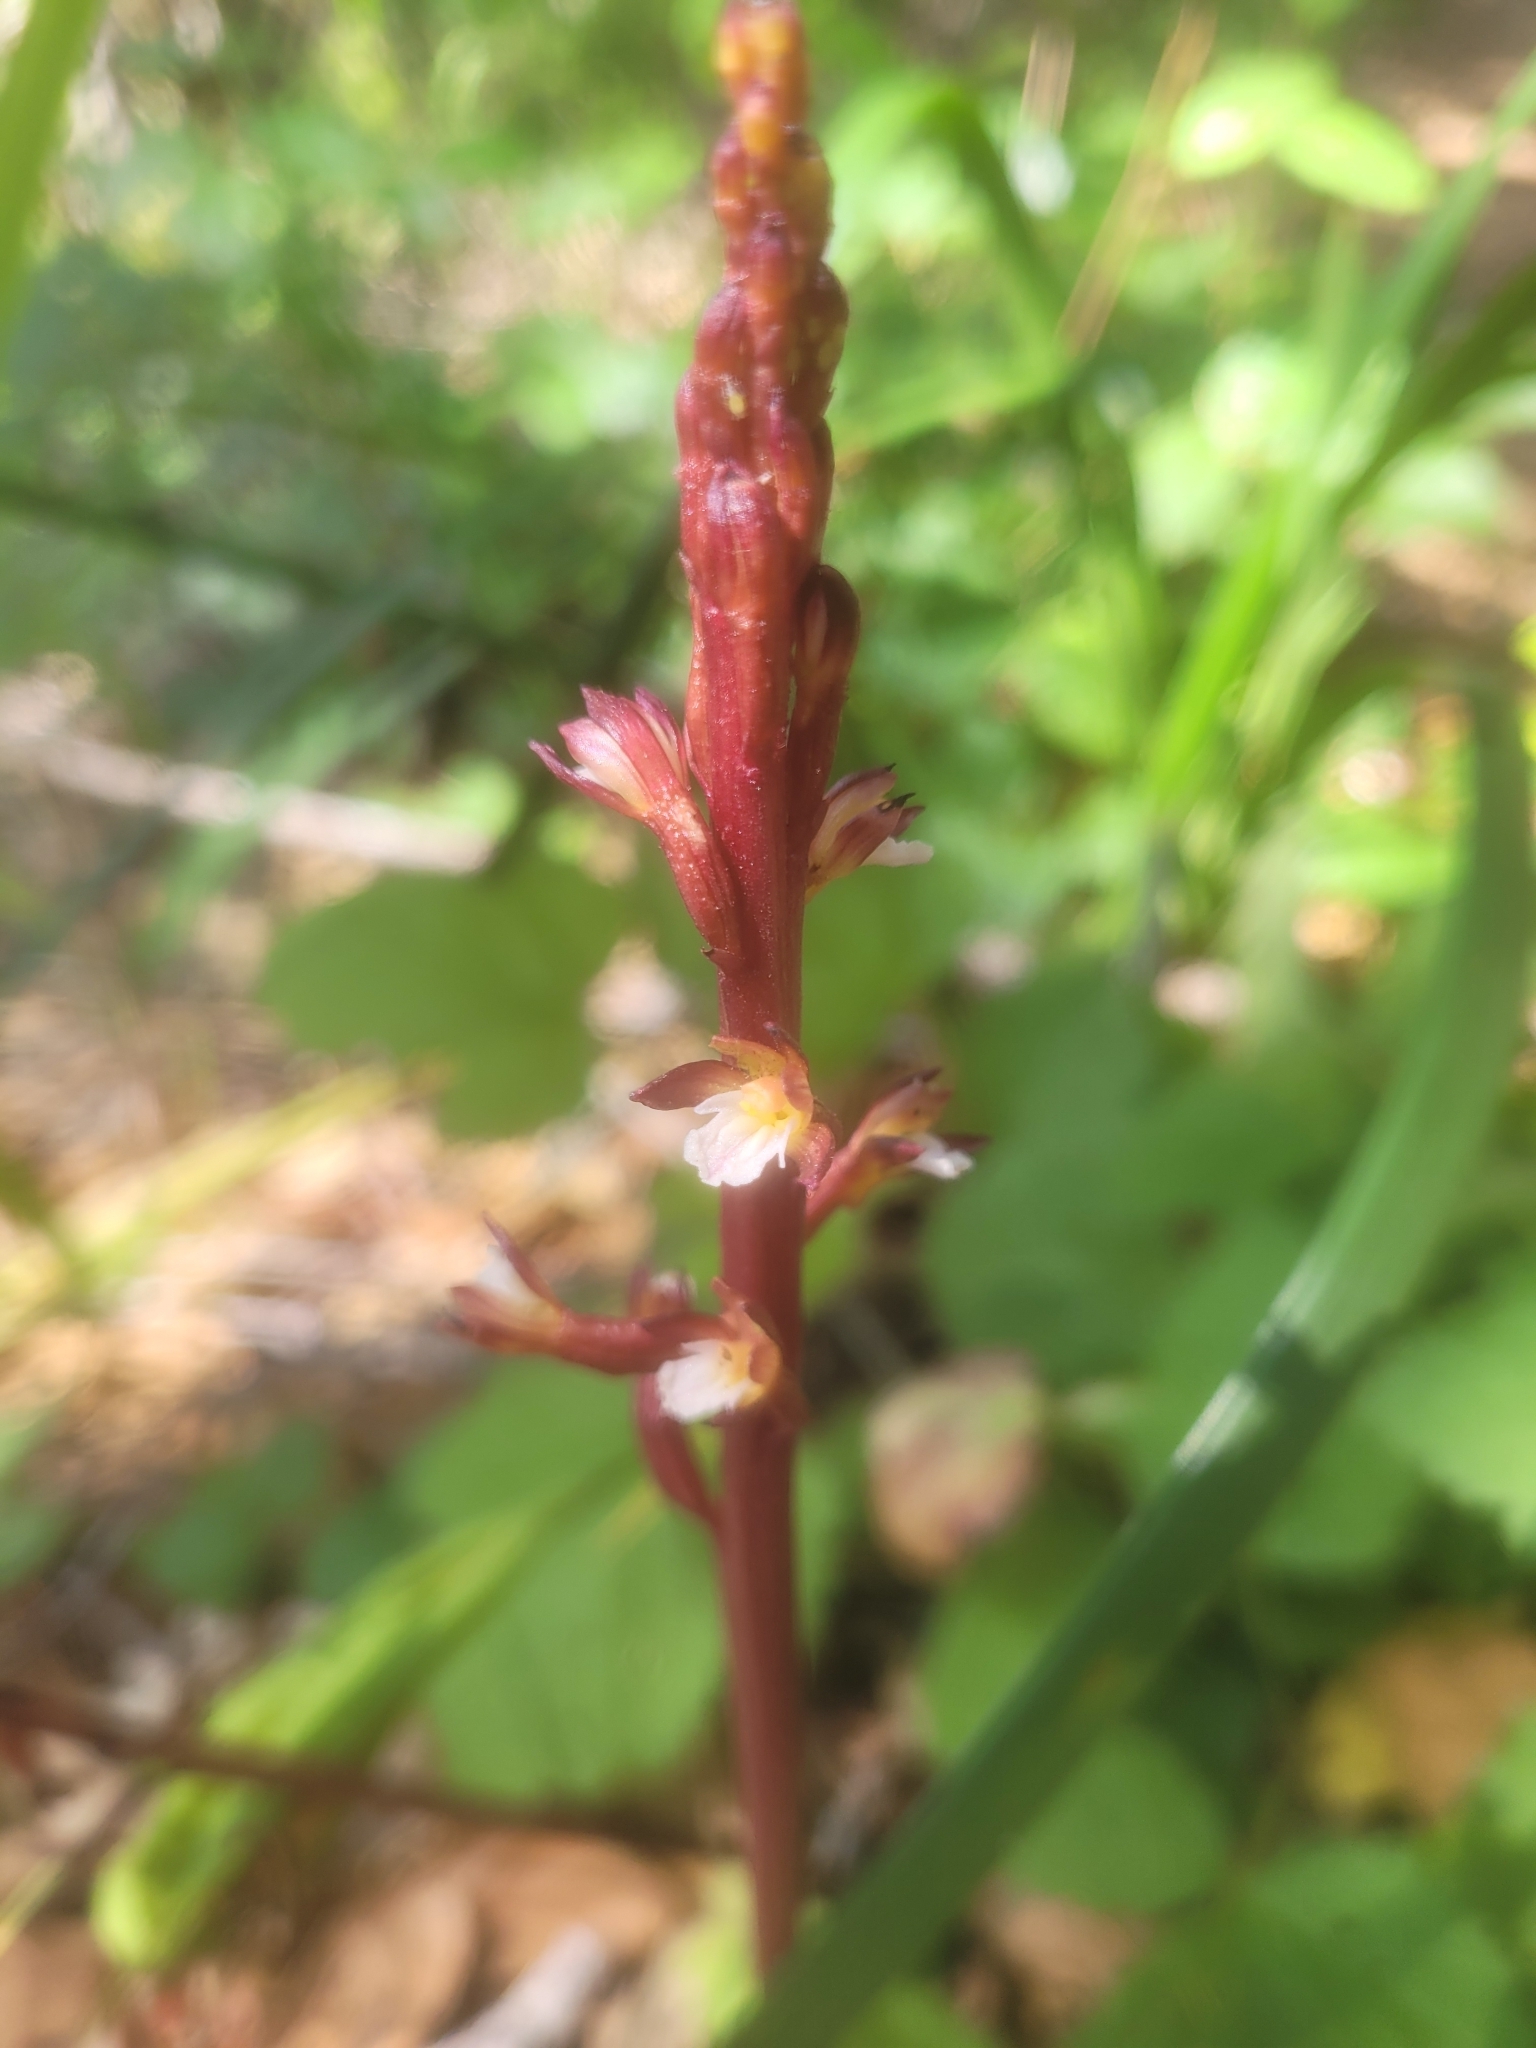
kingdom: Plantae
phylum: Tracheophyta
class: Liliopsida
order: Asparagales
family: Orchidaceae
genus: Corallorhiza
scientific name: Corallorhiza maculata
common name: Spotted coralroot
